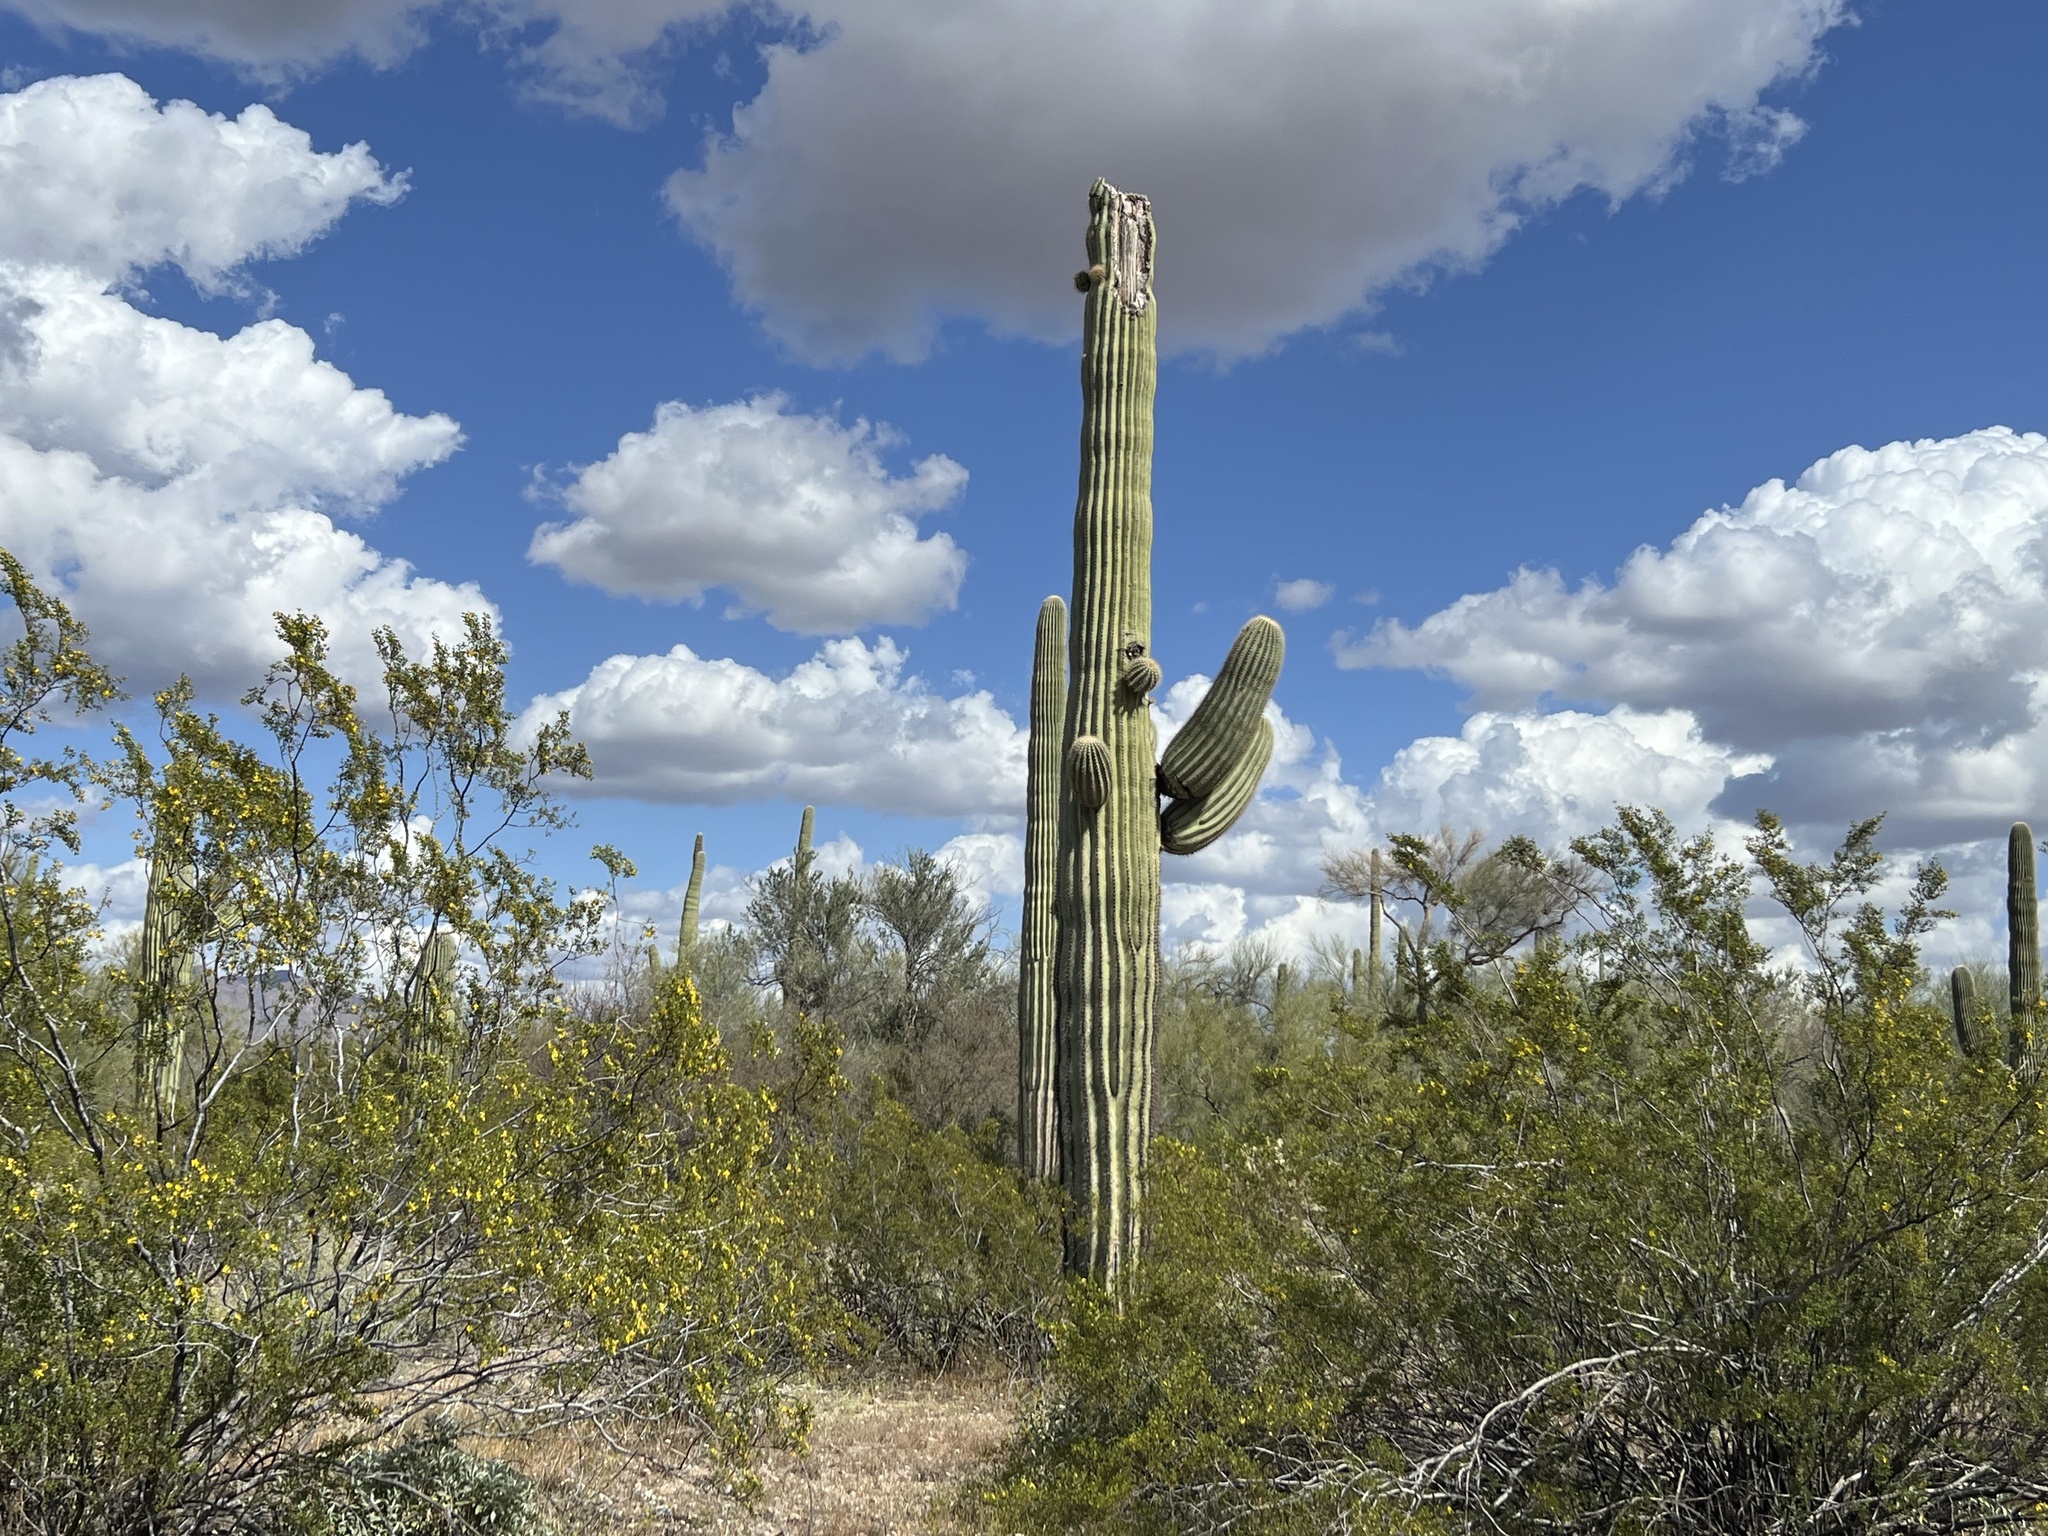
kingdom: Plantae
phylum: Tracheophyta
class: Magnoliopsida
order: Caryophyllales
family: Cactaceae
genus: Carnegiea
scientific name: Carnegiea gigantea
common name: Saguaro
